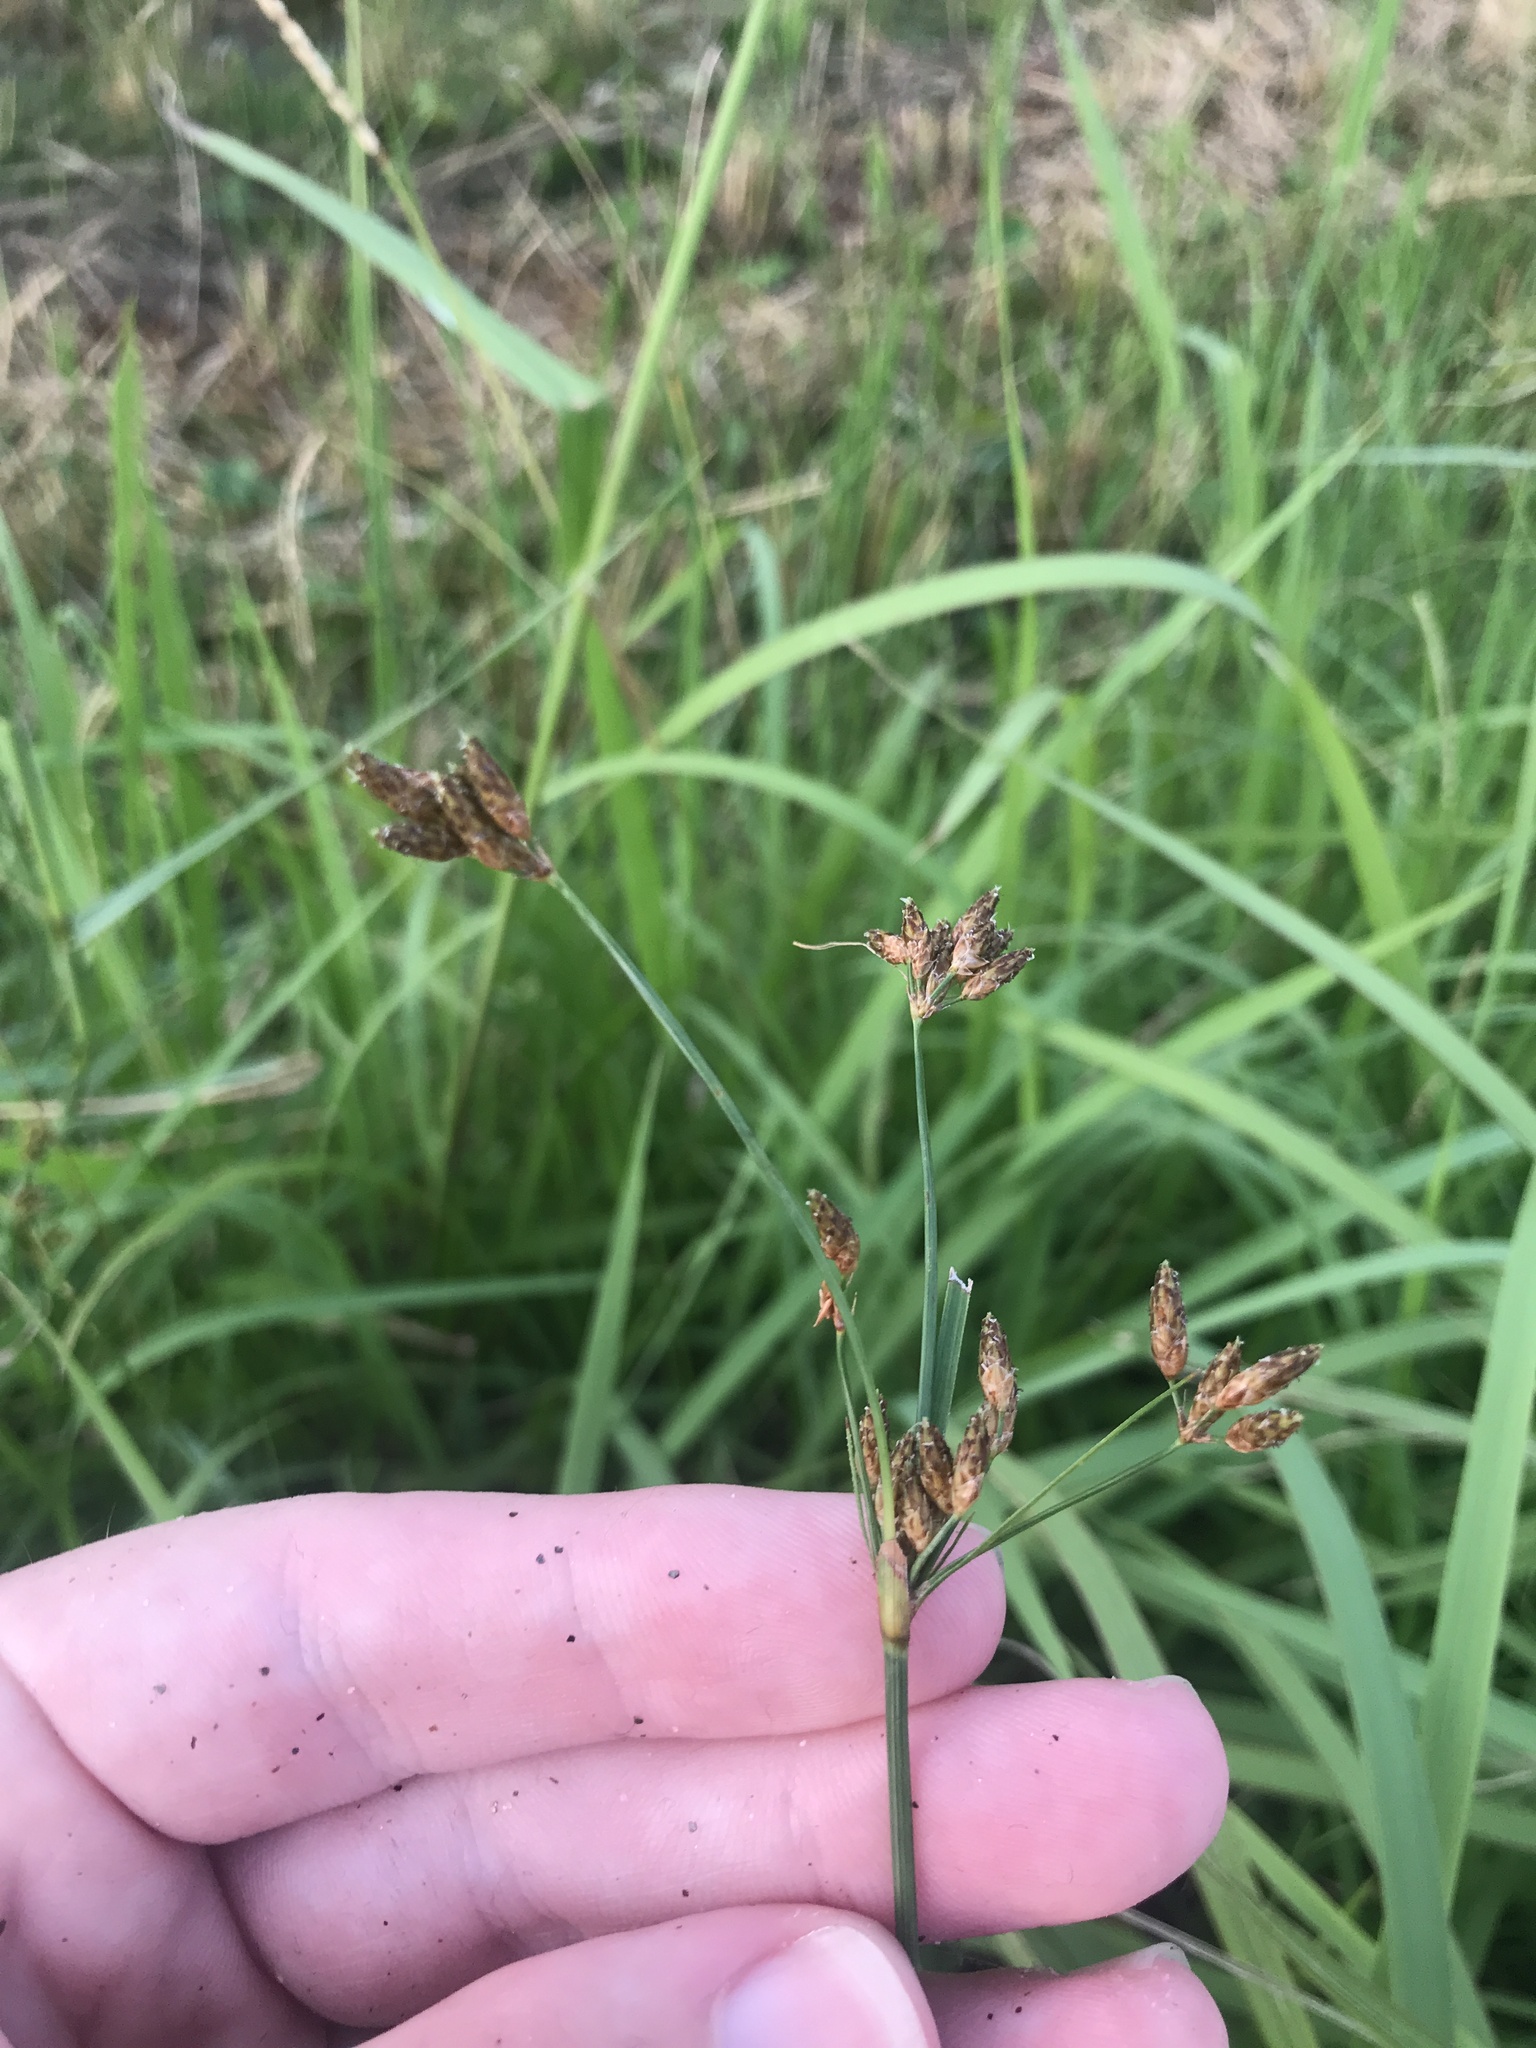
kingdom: Plantae
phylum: Tracheophyta
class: Liliopsida
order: Poales
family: Cyperaceae
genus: Fimbristylis
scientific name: Fimbristylis dichotoma
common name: Forked fimbry
